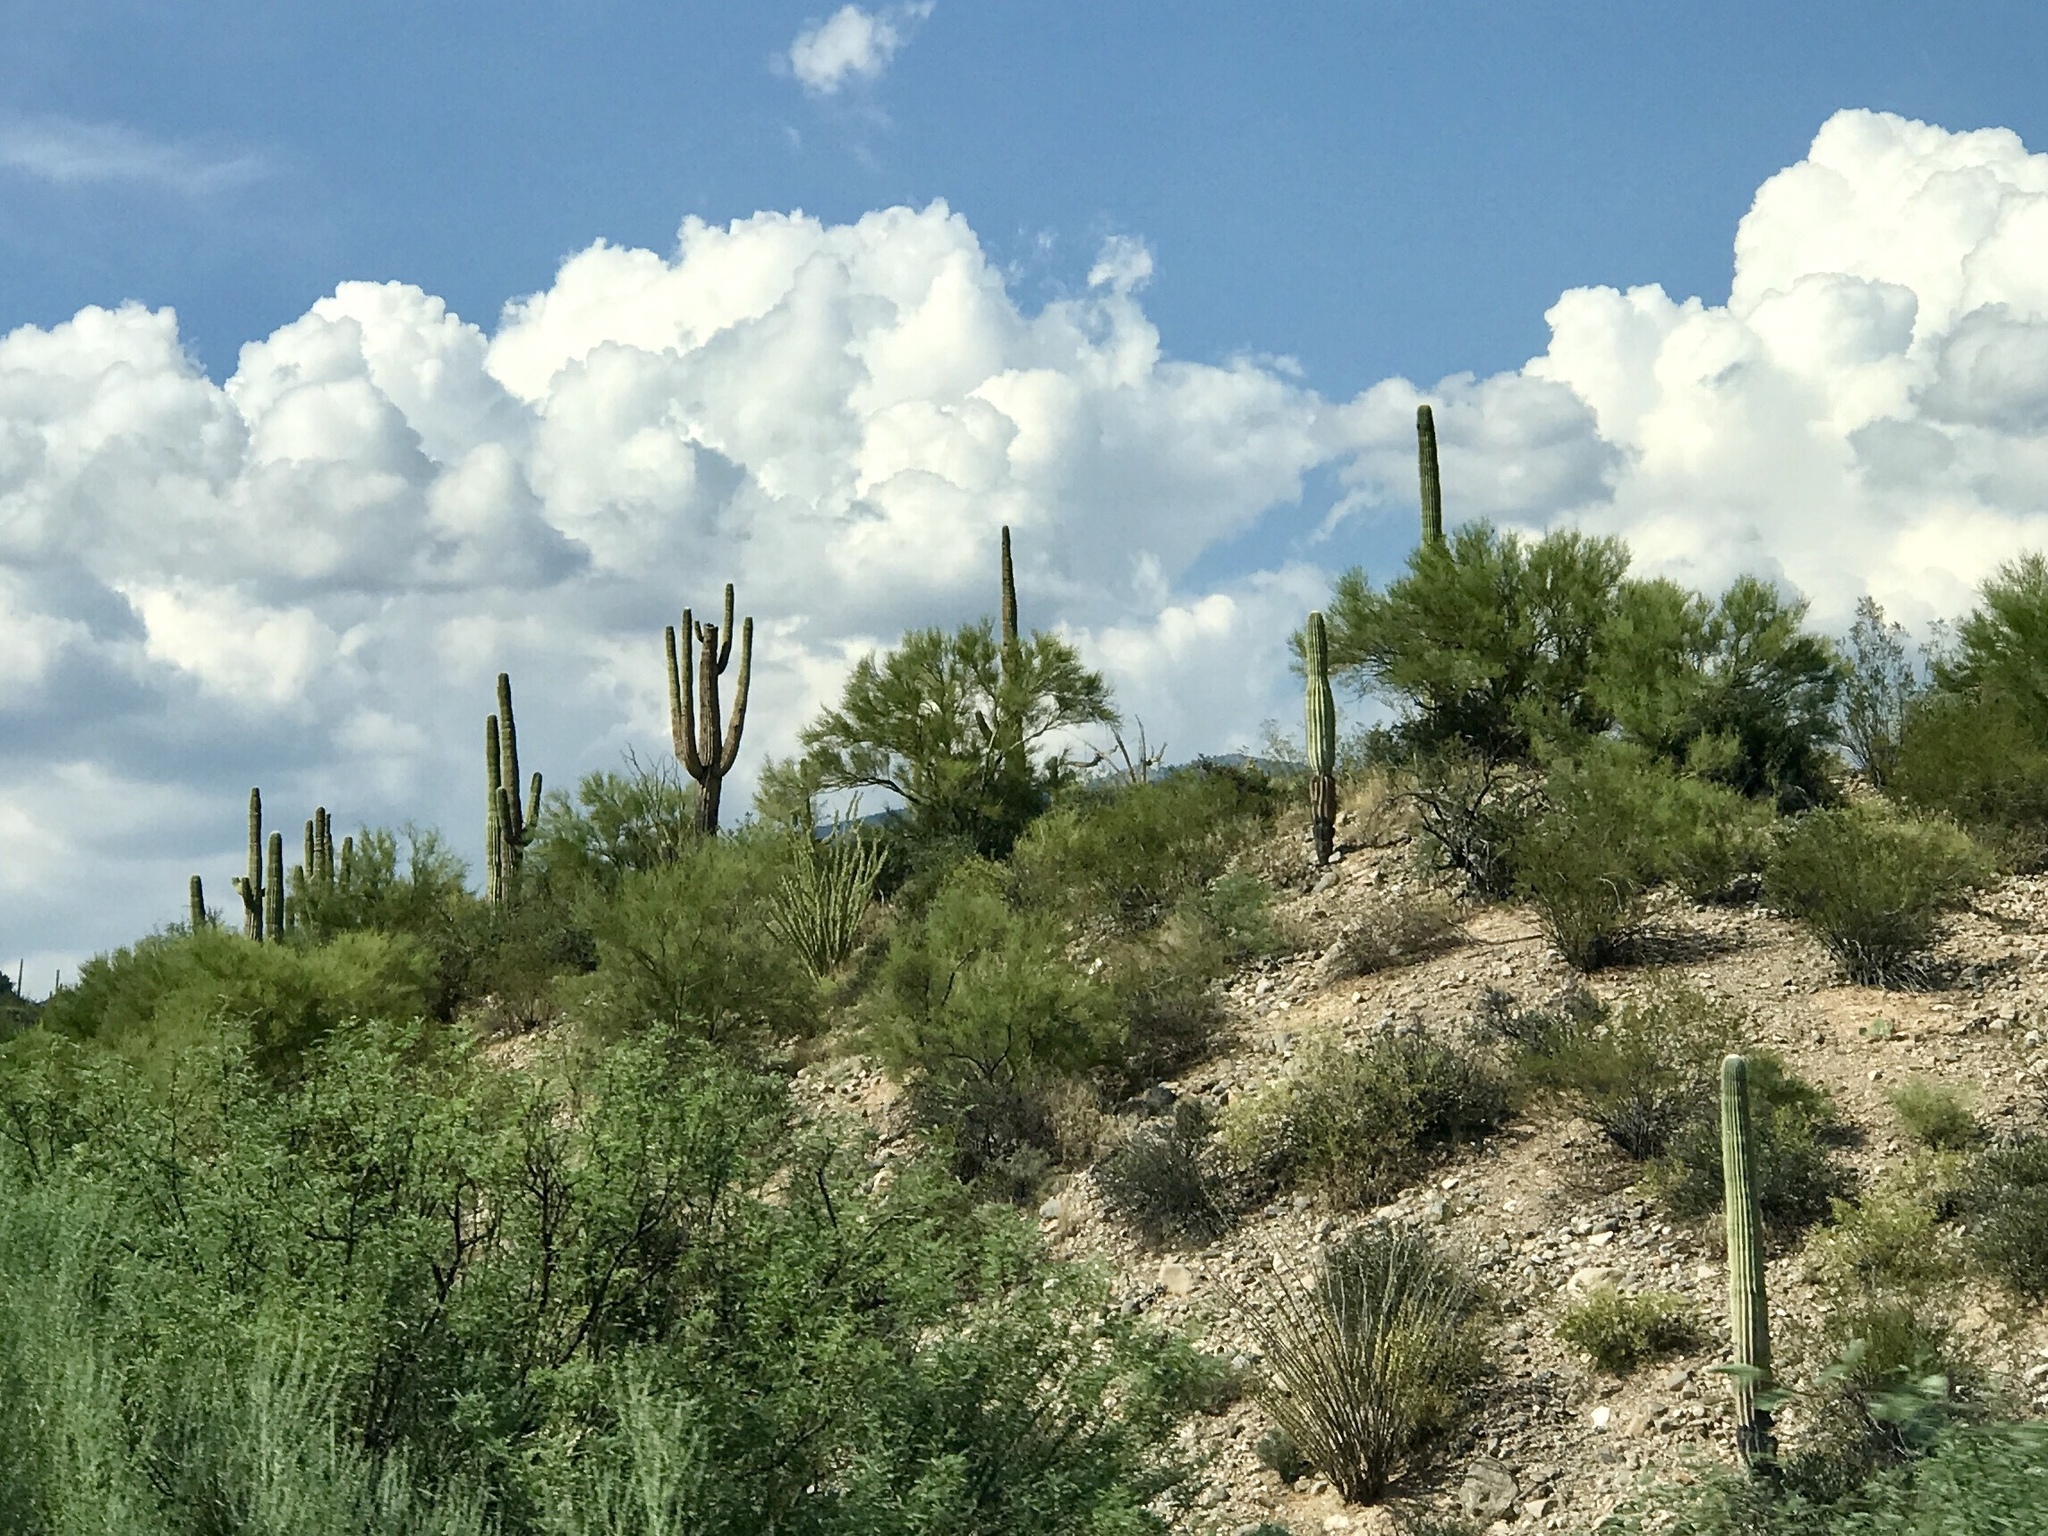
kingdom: Plantae
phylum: Tracheophyta
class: Magnoliopsida
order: Caryophyllales
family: Cactaceae
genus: Carnegiea
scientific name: Carnegiea gigantea
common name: Saguaro
